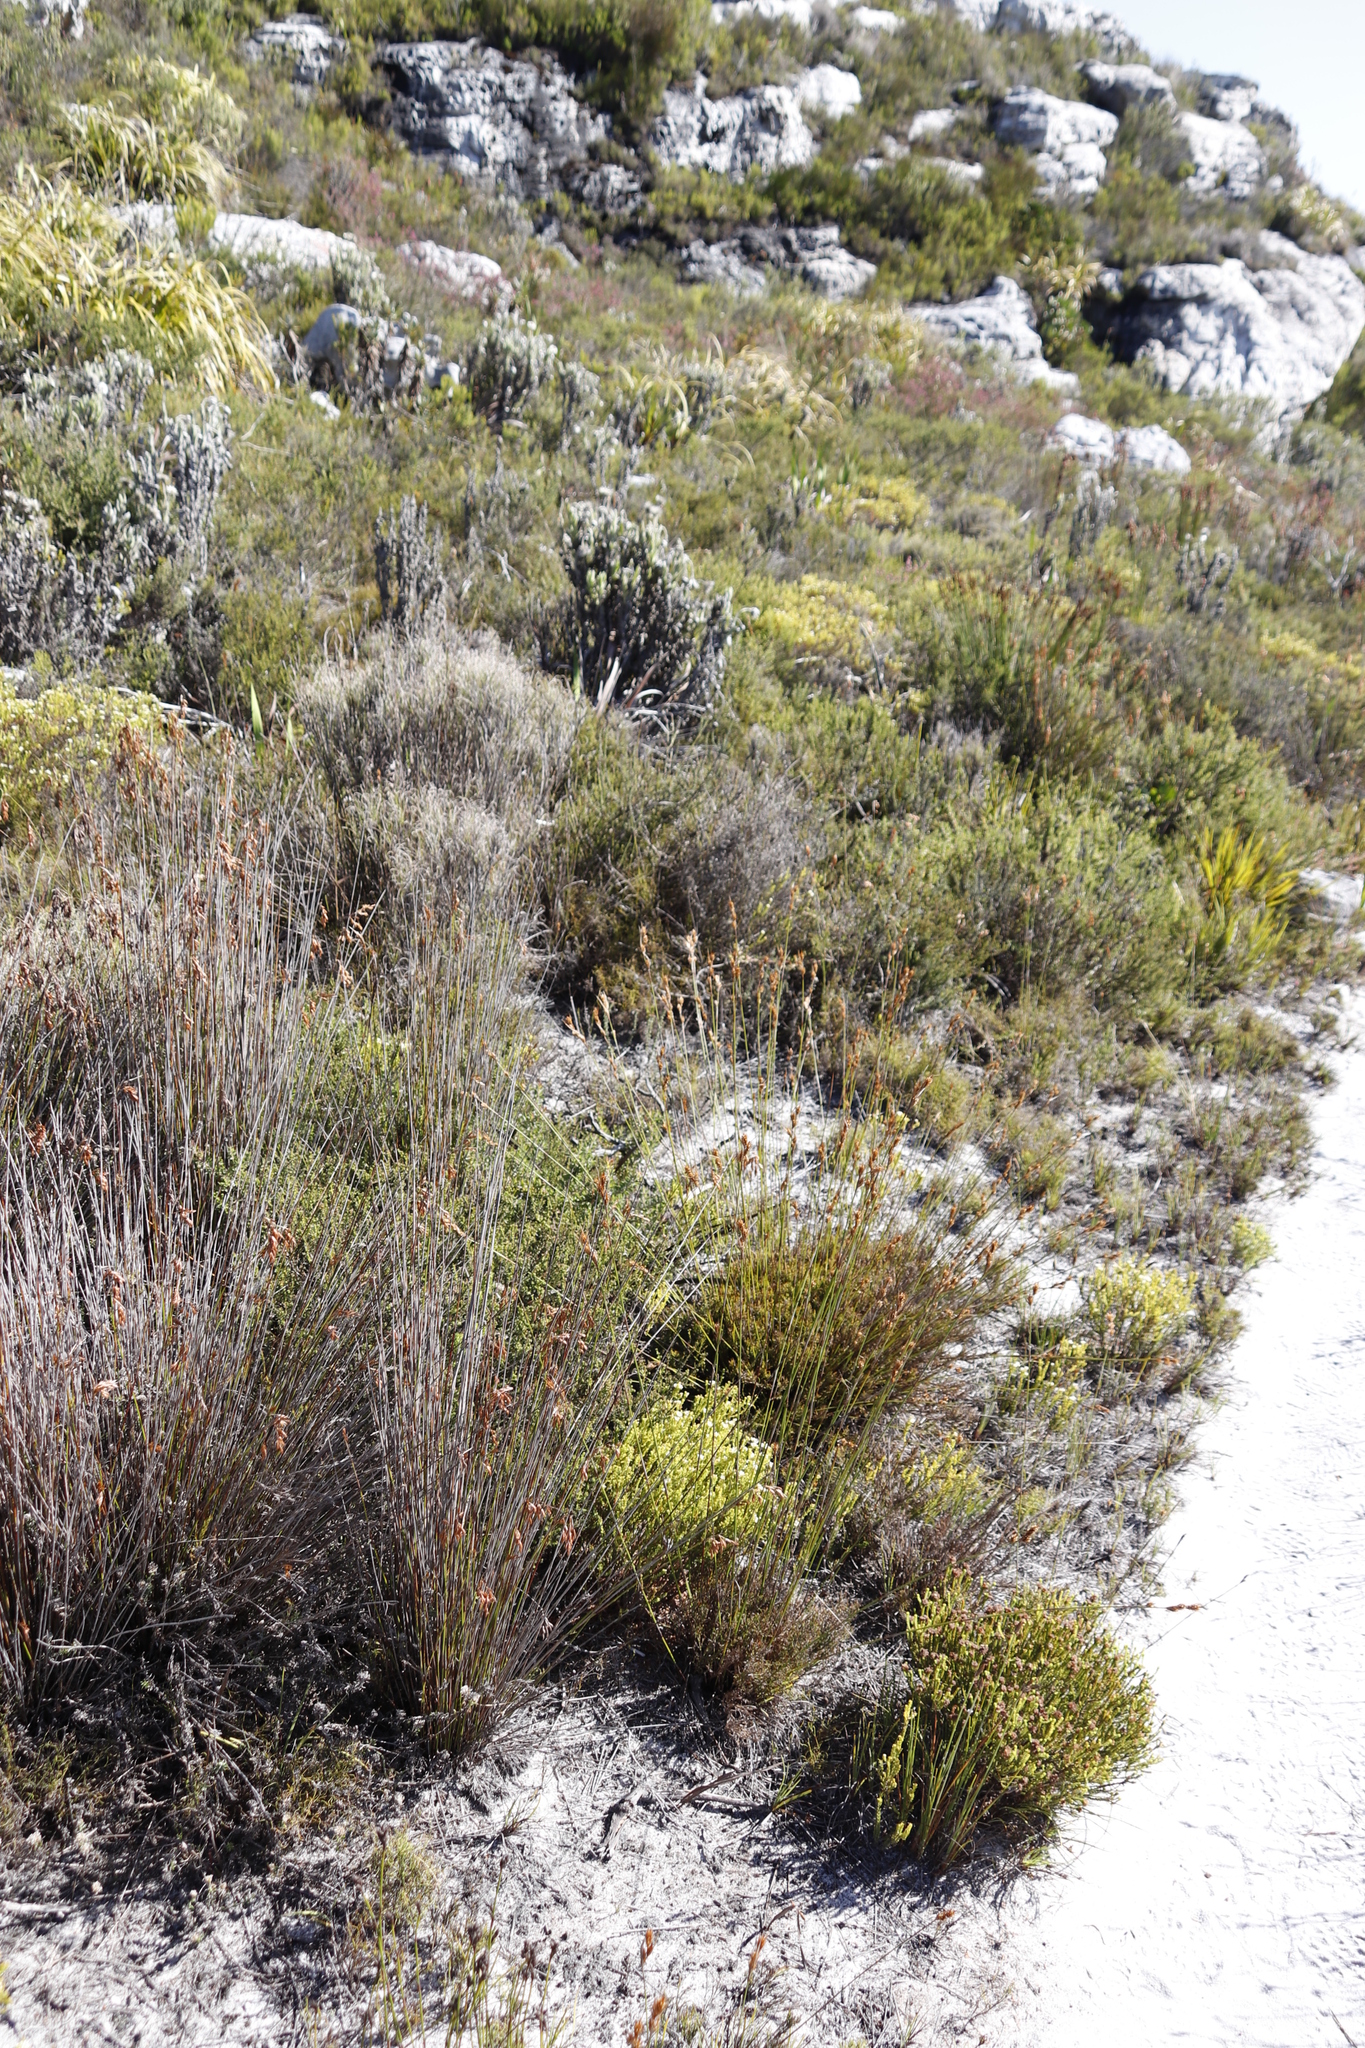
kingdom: Plantae
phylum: Tracheophyta
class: Liliopsida
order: Poales
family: Poaceae
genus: Pseudopentameris
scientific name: Pseudopentameris macrantha
